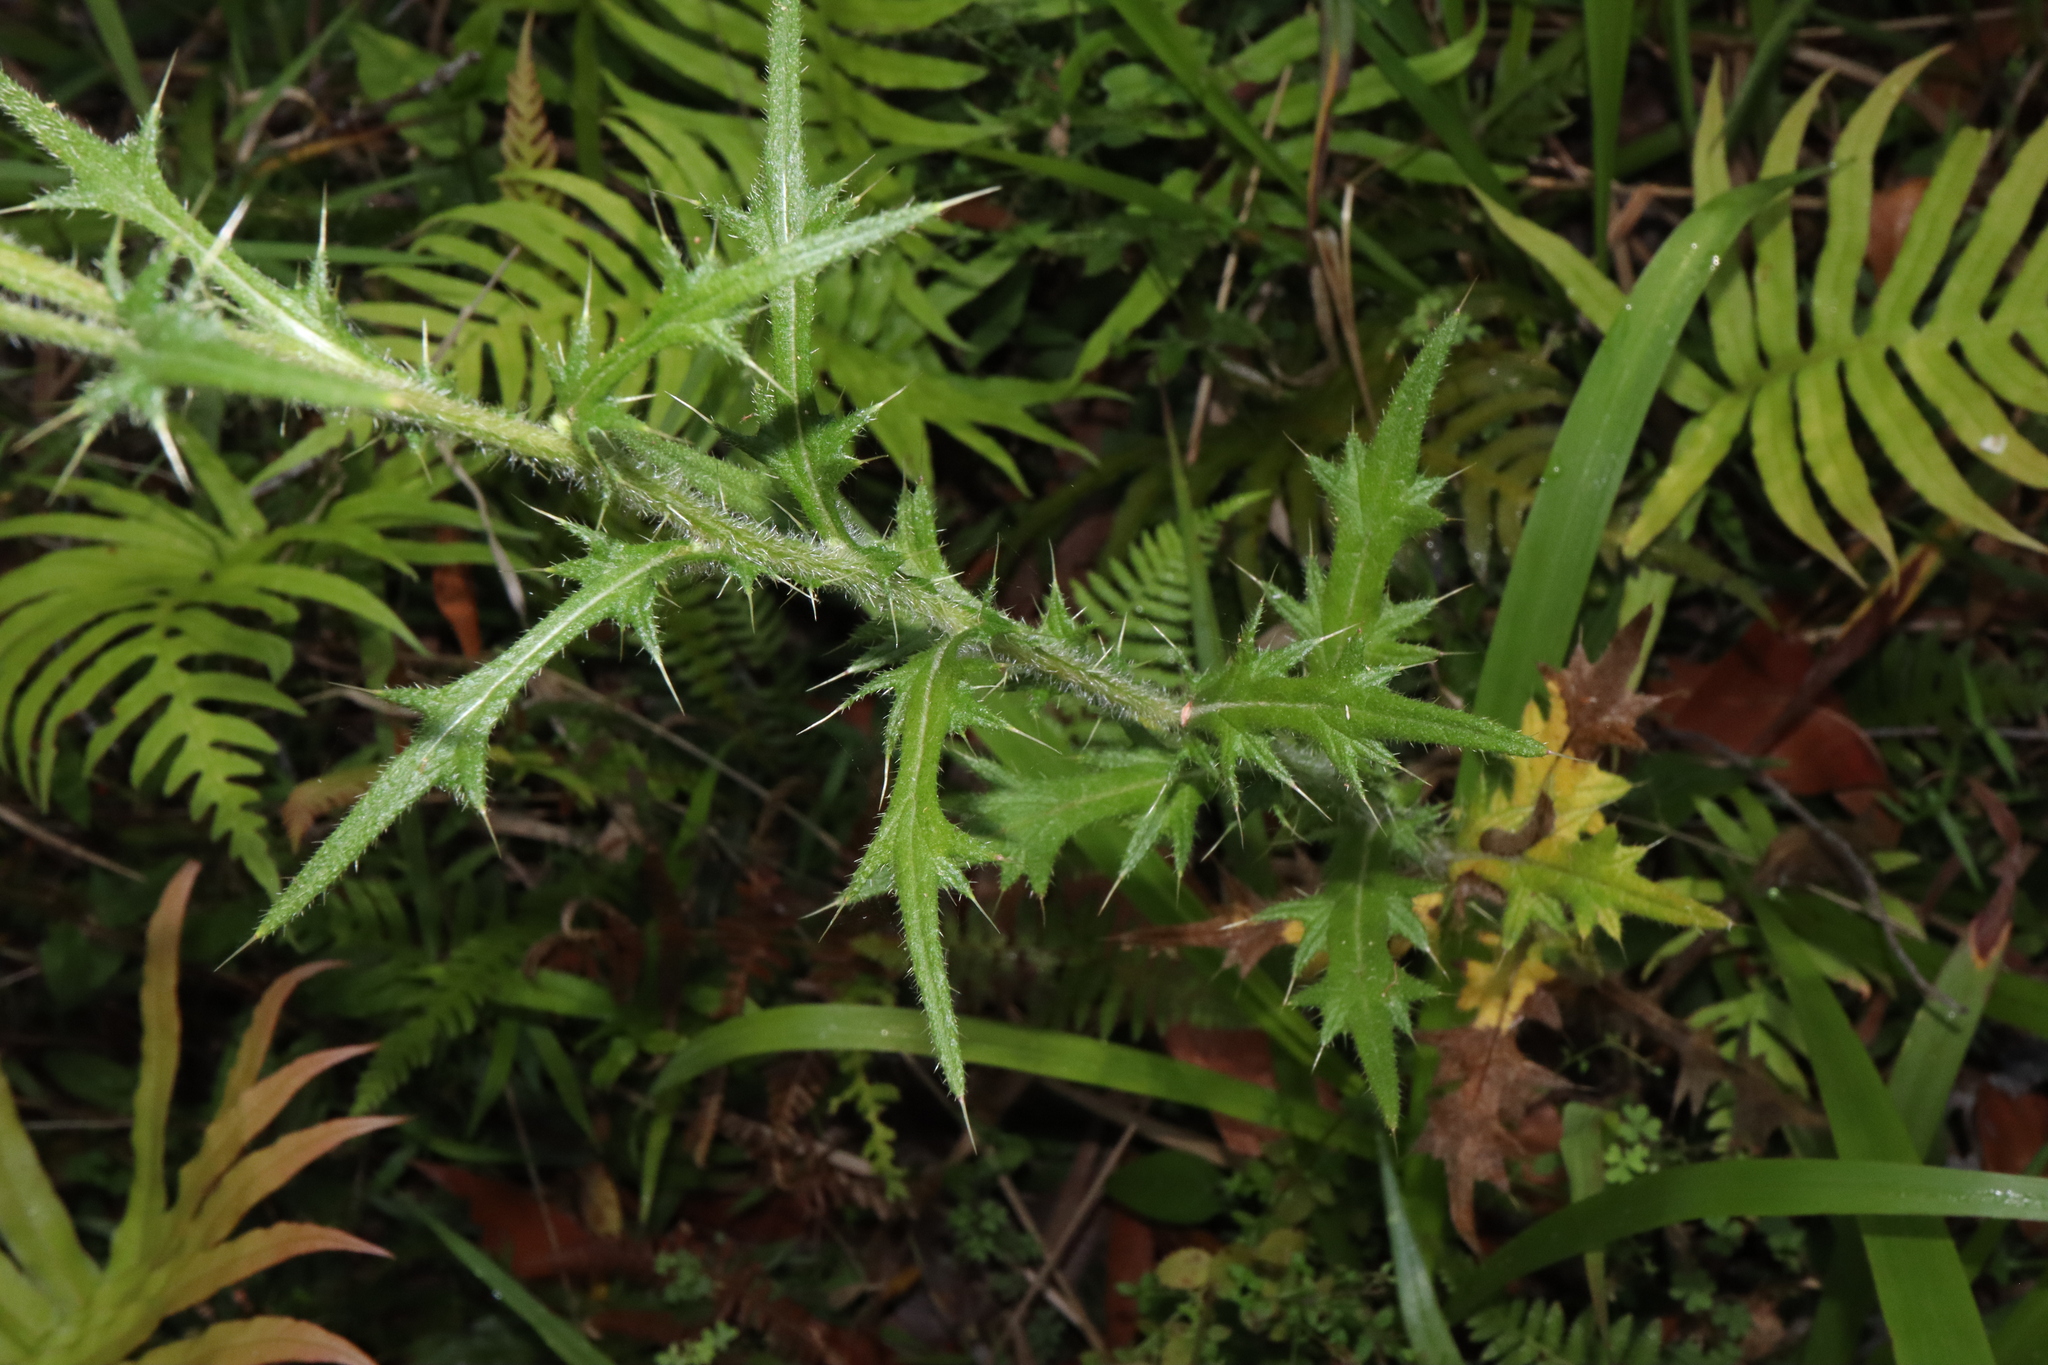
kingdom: Plantae
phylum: Tracheophyta
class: Magnoliopsida
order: Asterales
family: Asteraceae
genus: Cirsium
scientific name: Cirsium vulgare
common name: Bull thistle
